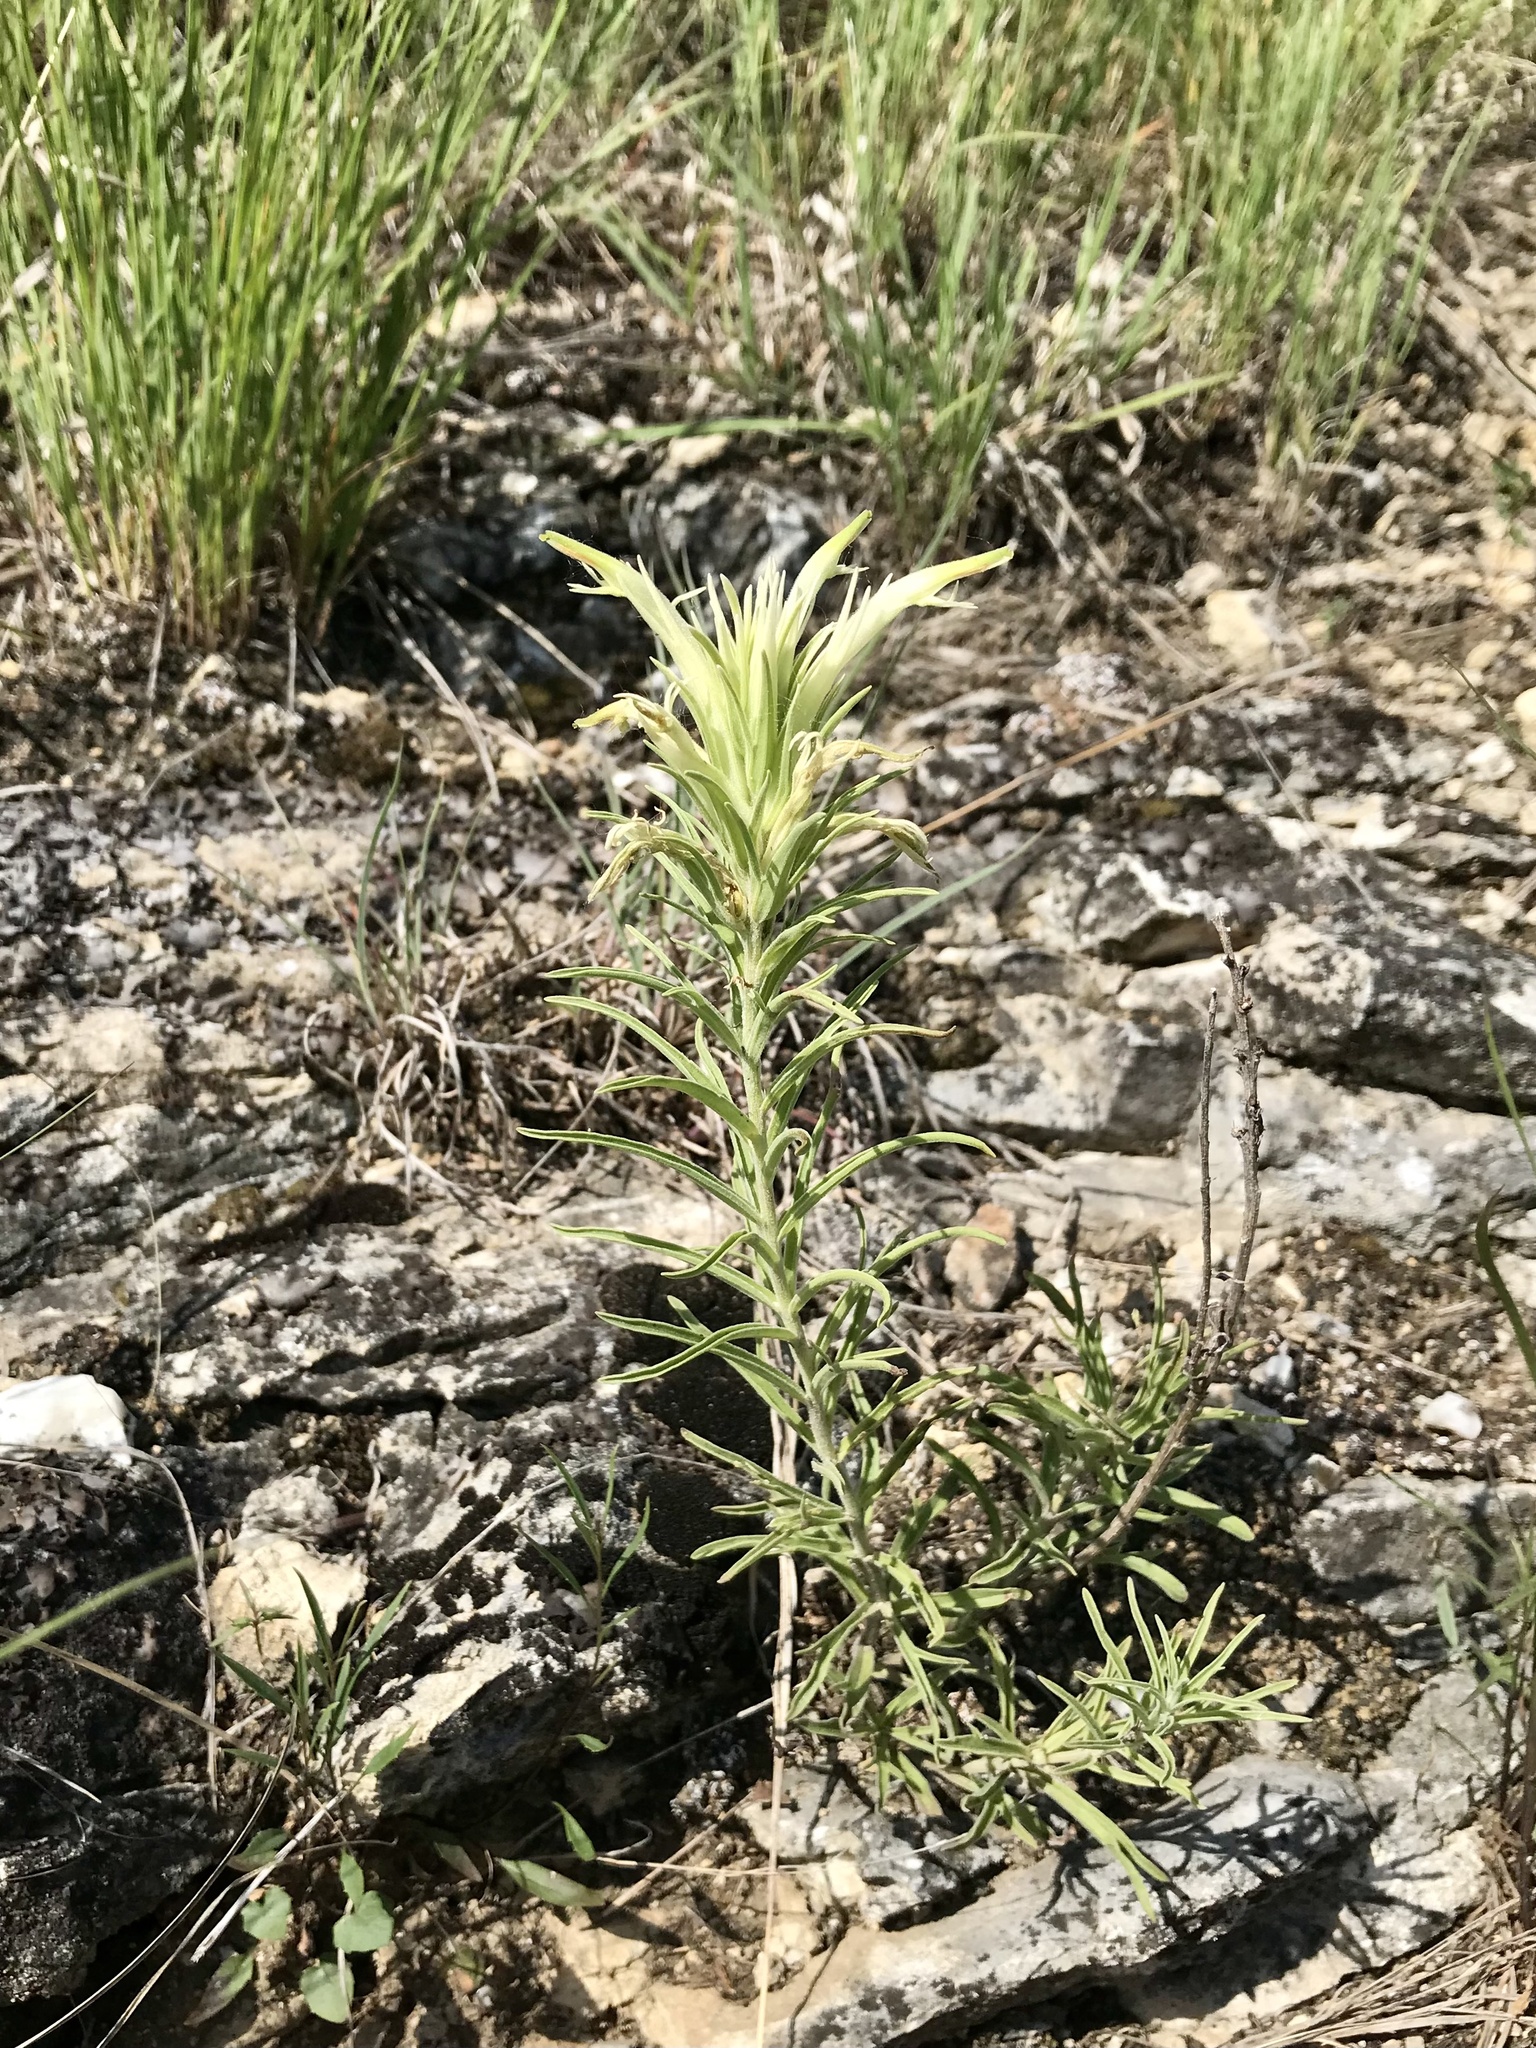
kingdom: Plantae
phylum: Tracheophyta
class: Magnoliopsida
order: Lamiales
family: Orobanchaceae
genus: Castilleja
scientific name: Castilleja sessiliflora
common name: Downy paintbrush
